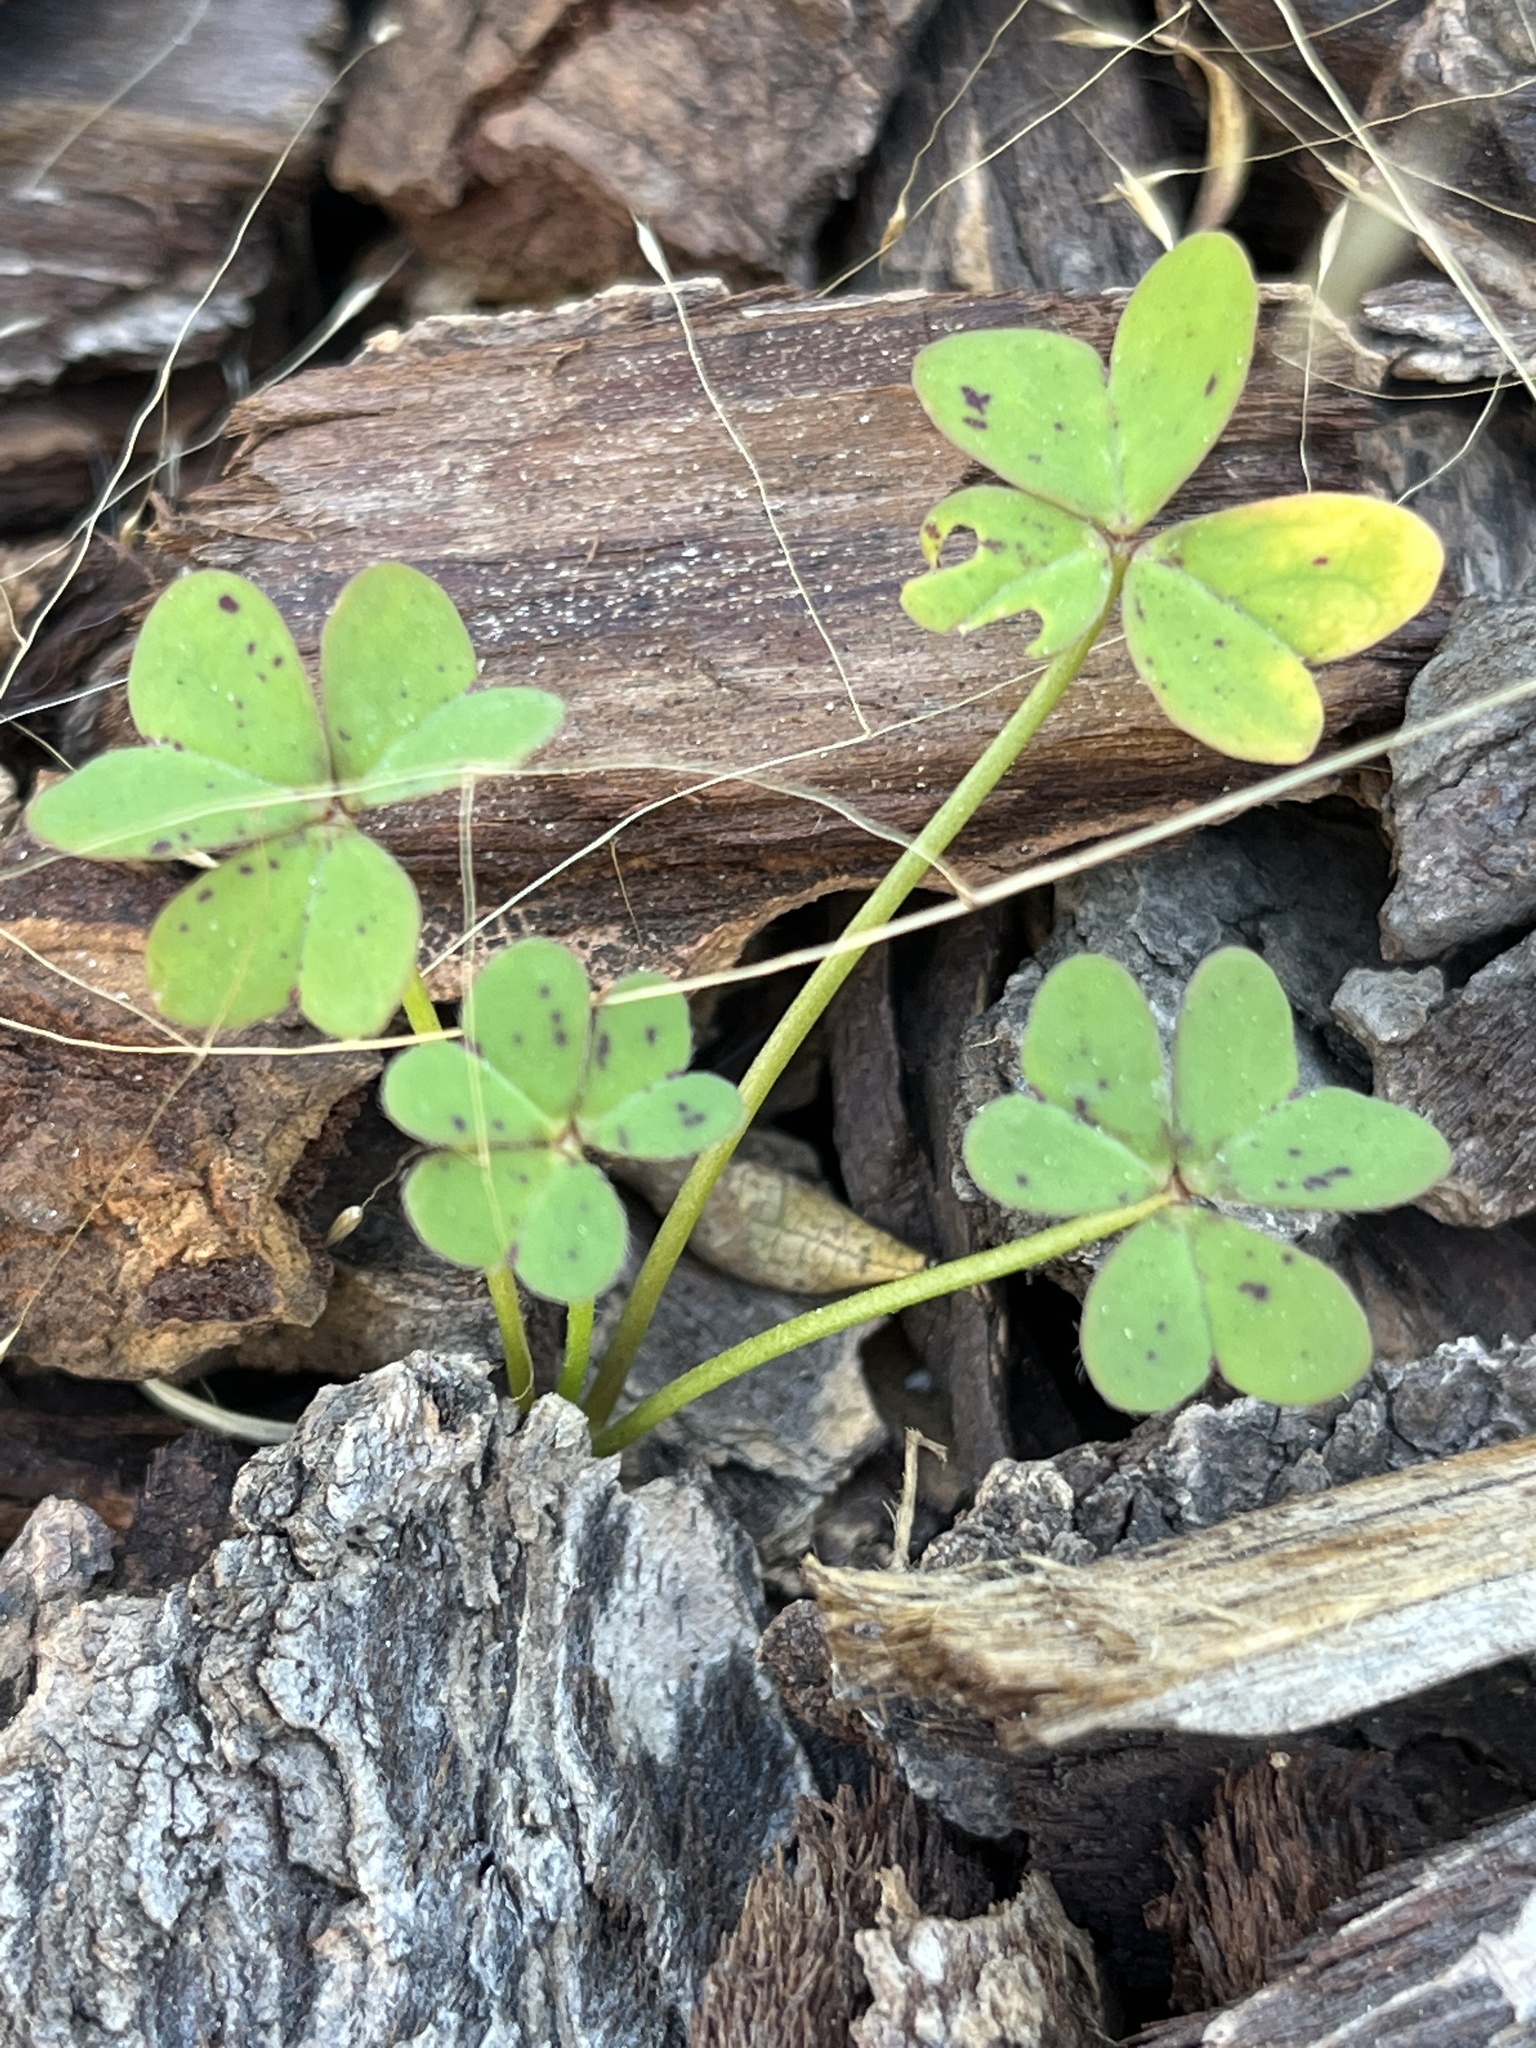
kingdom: Plantae
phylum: Tracheophyta
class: Magnoliopsida
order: Oxalidales
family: Oxalidaceae
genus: Oxalis
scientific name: Oxalis pes-caprae
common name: Bermuda-buttercup
